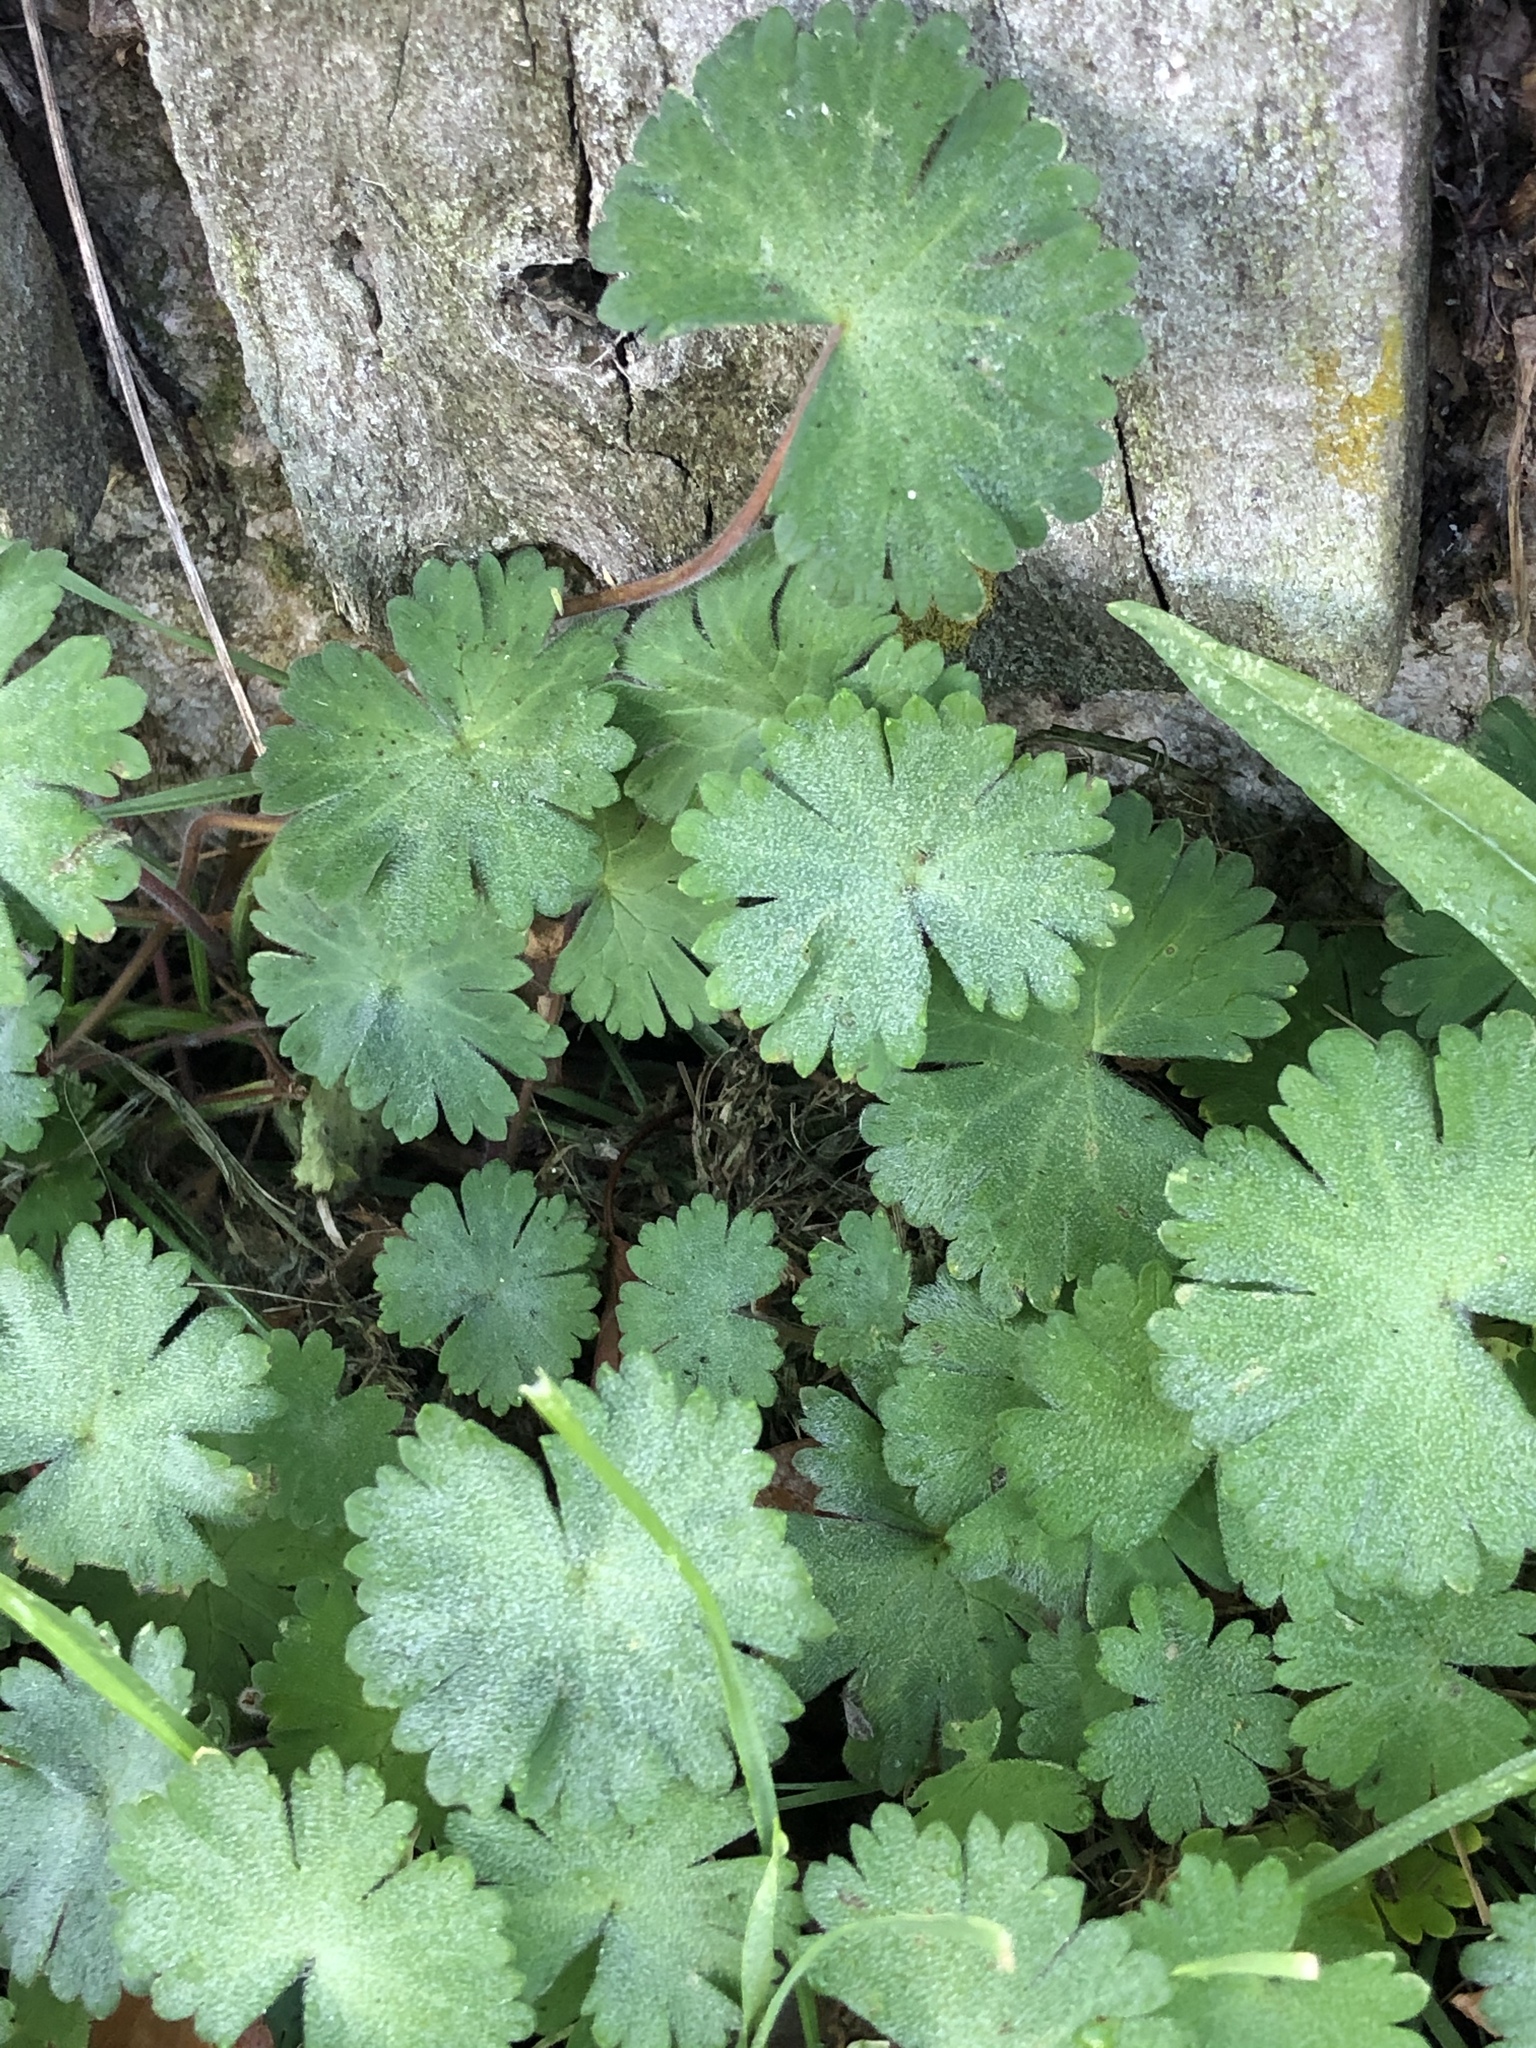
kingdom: Plantae
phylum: Tracheophyta
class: Magnoliopsida
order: Geraniales
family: Geraniaceae
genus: Geranium
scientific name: Geranium molle
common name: Dove's-foot crane's-bill
